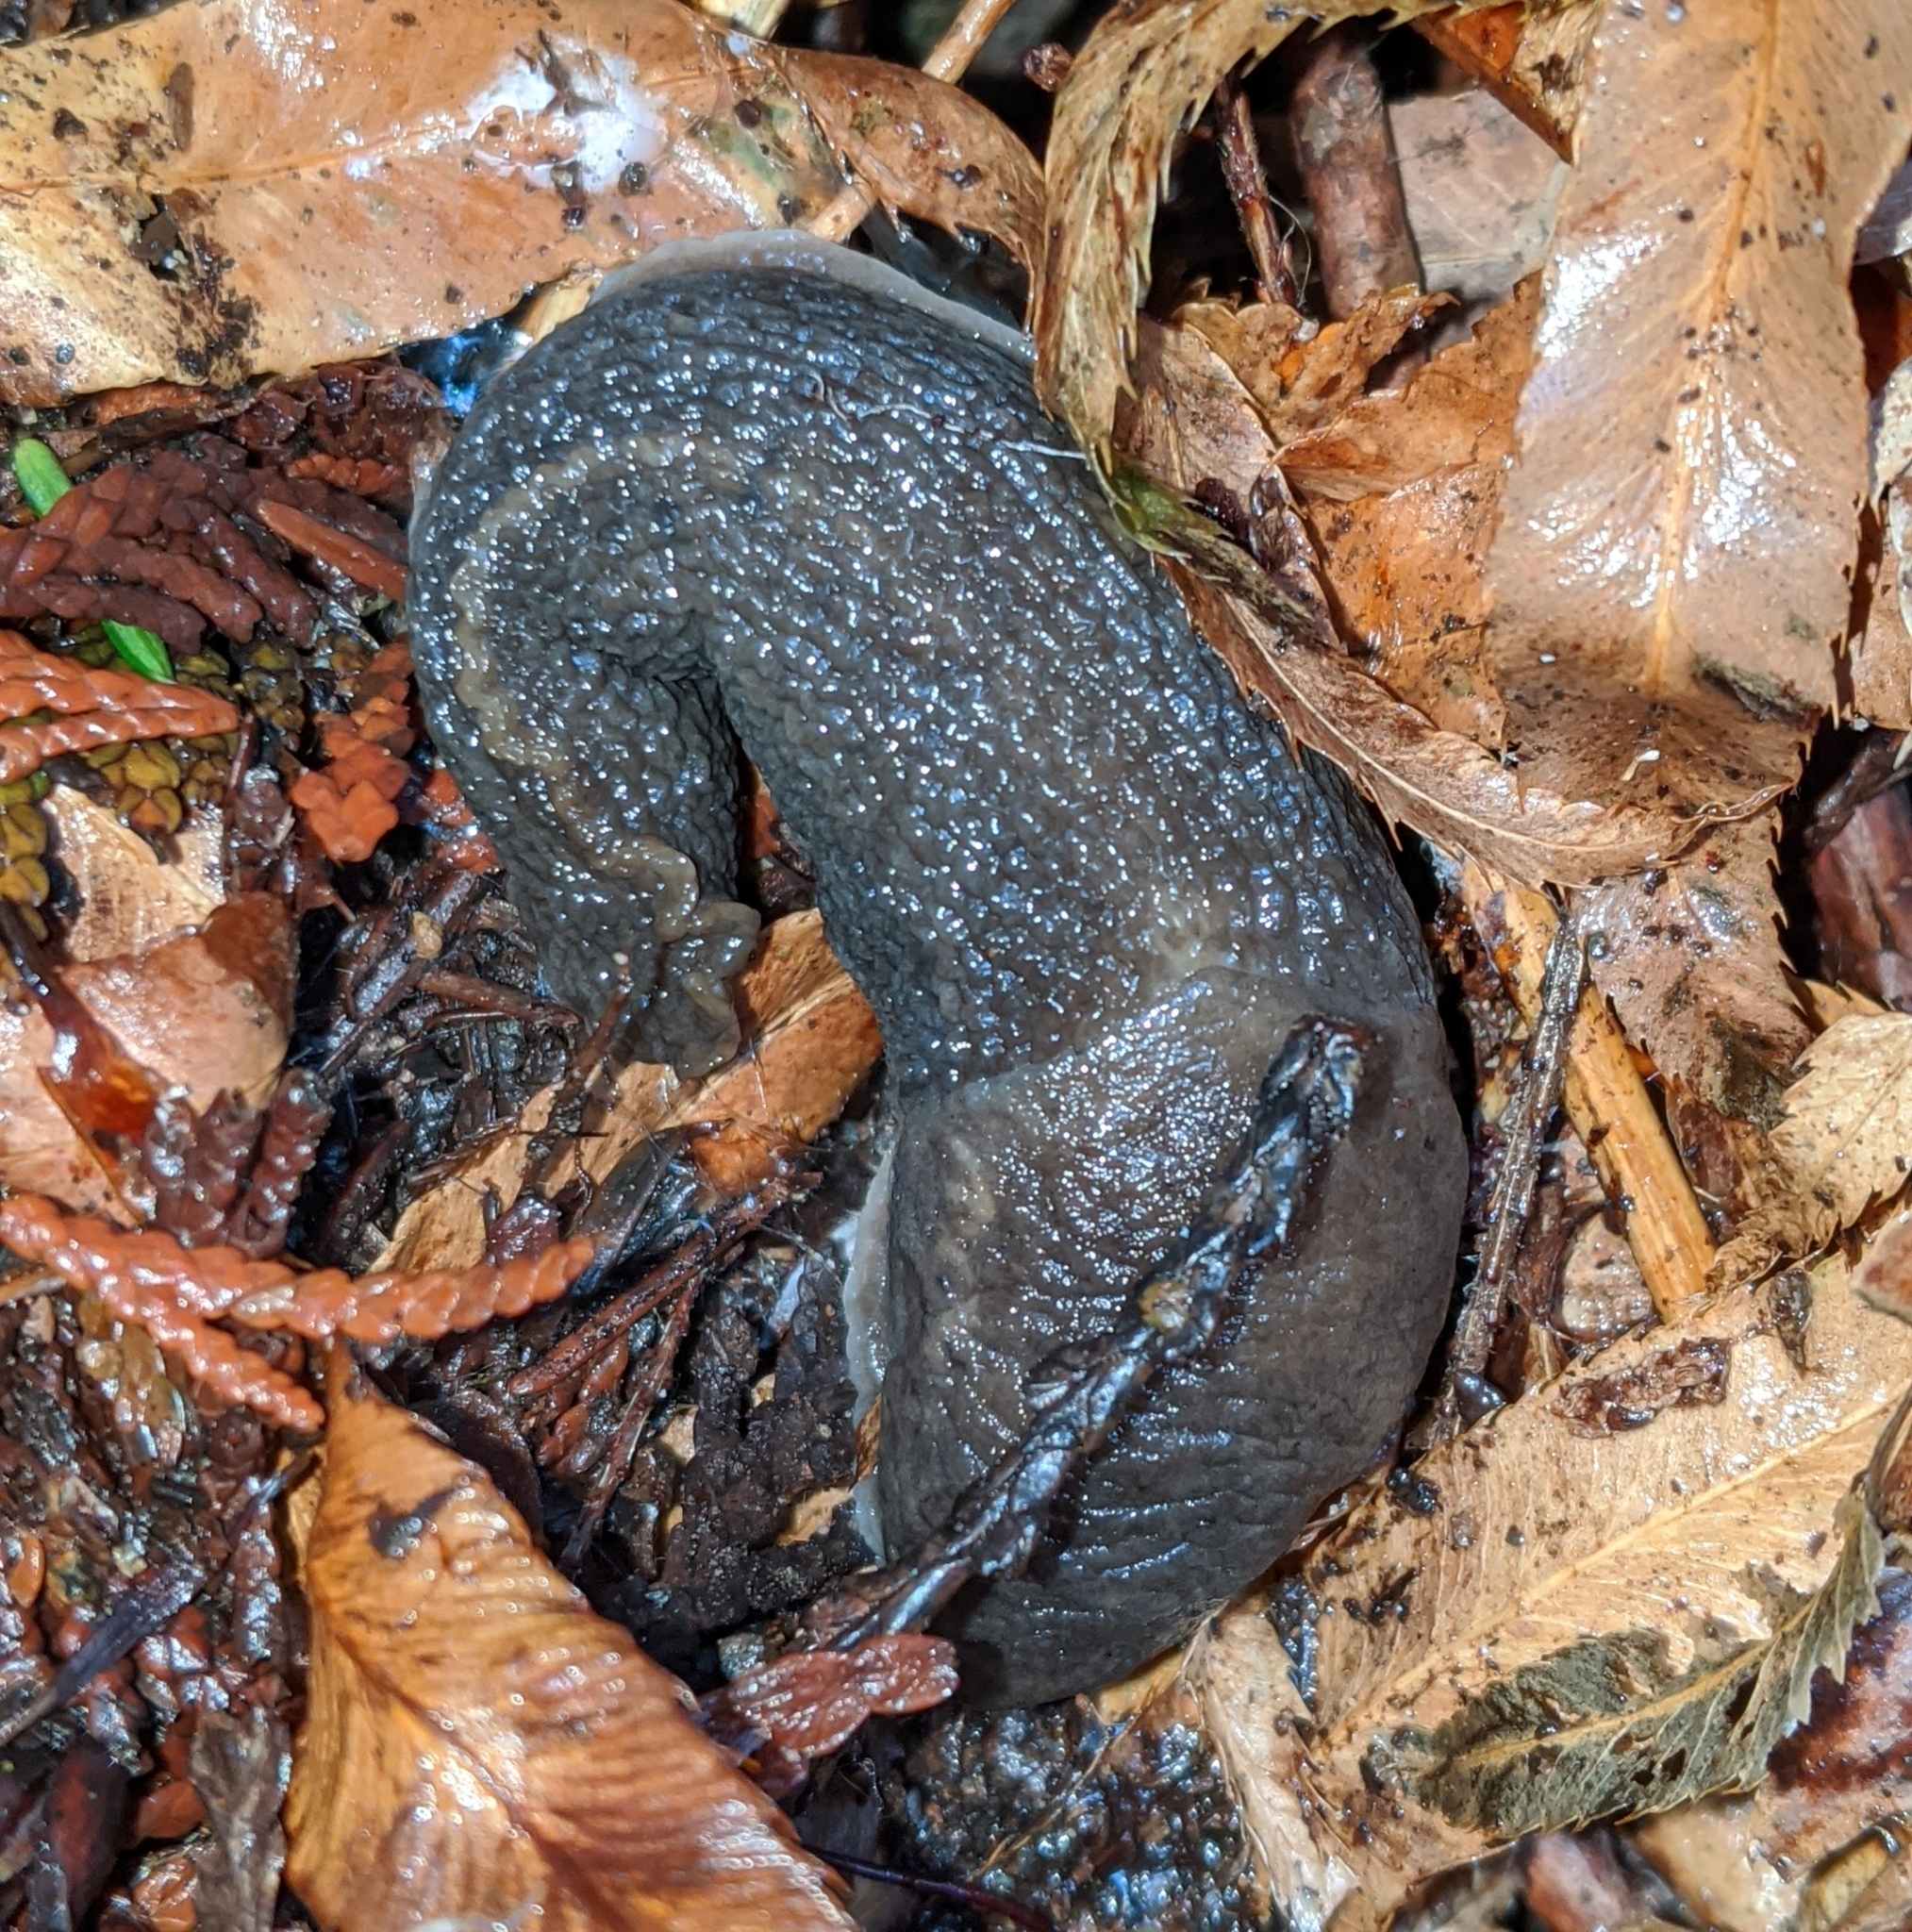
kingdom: Animalia
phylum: Mollusca
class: Gastropoda
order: Stylommatophora
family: Limacidae
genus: Limax
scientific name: Limax maximus
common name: Great grey slug
